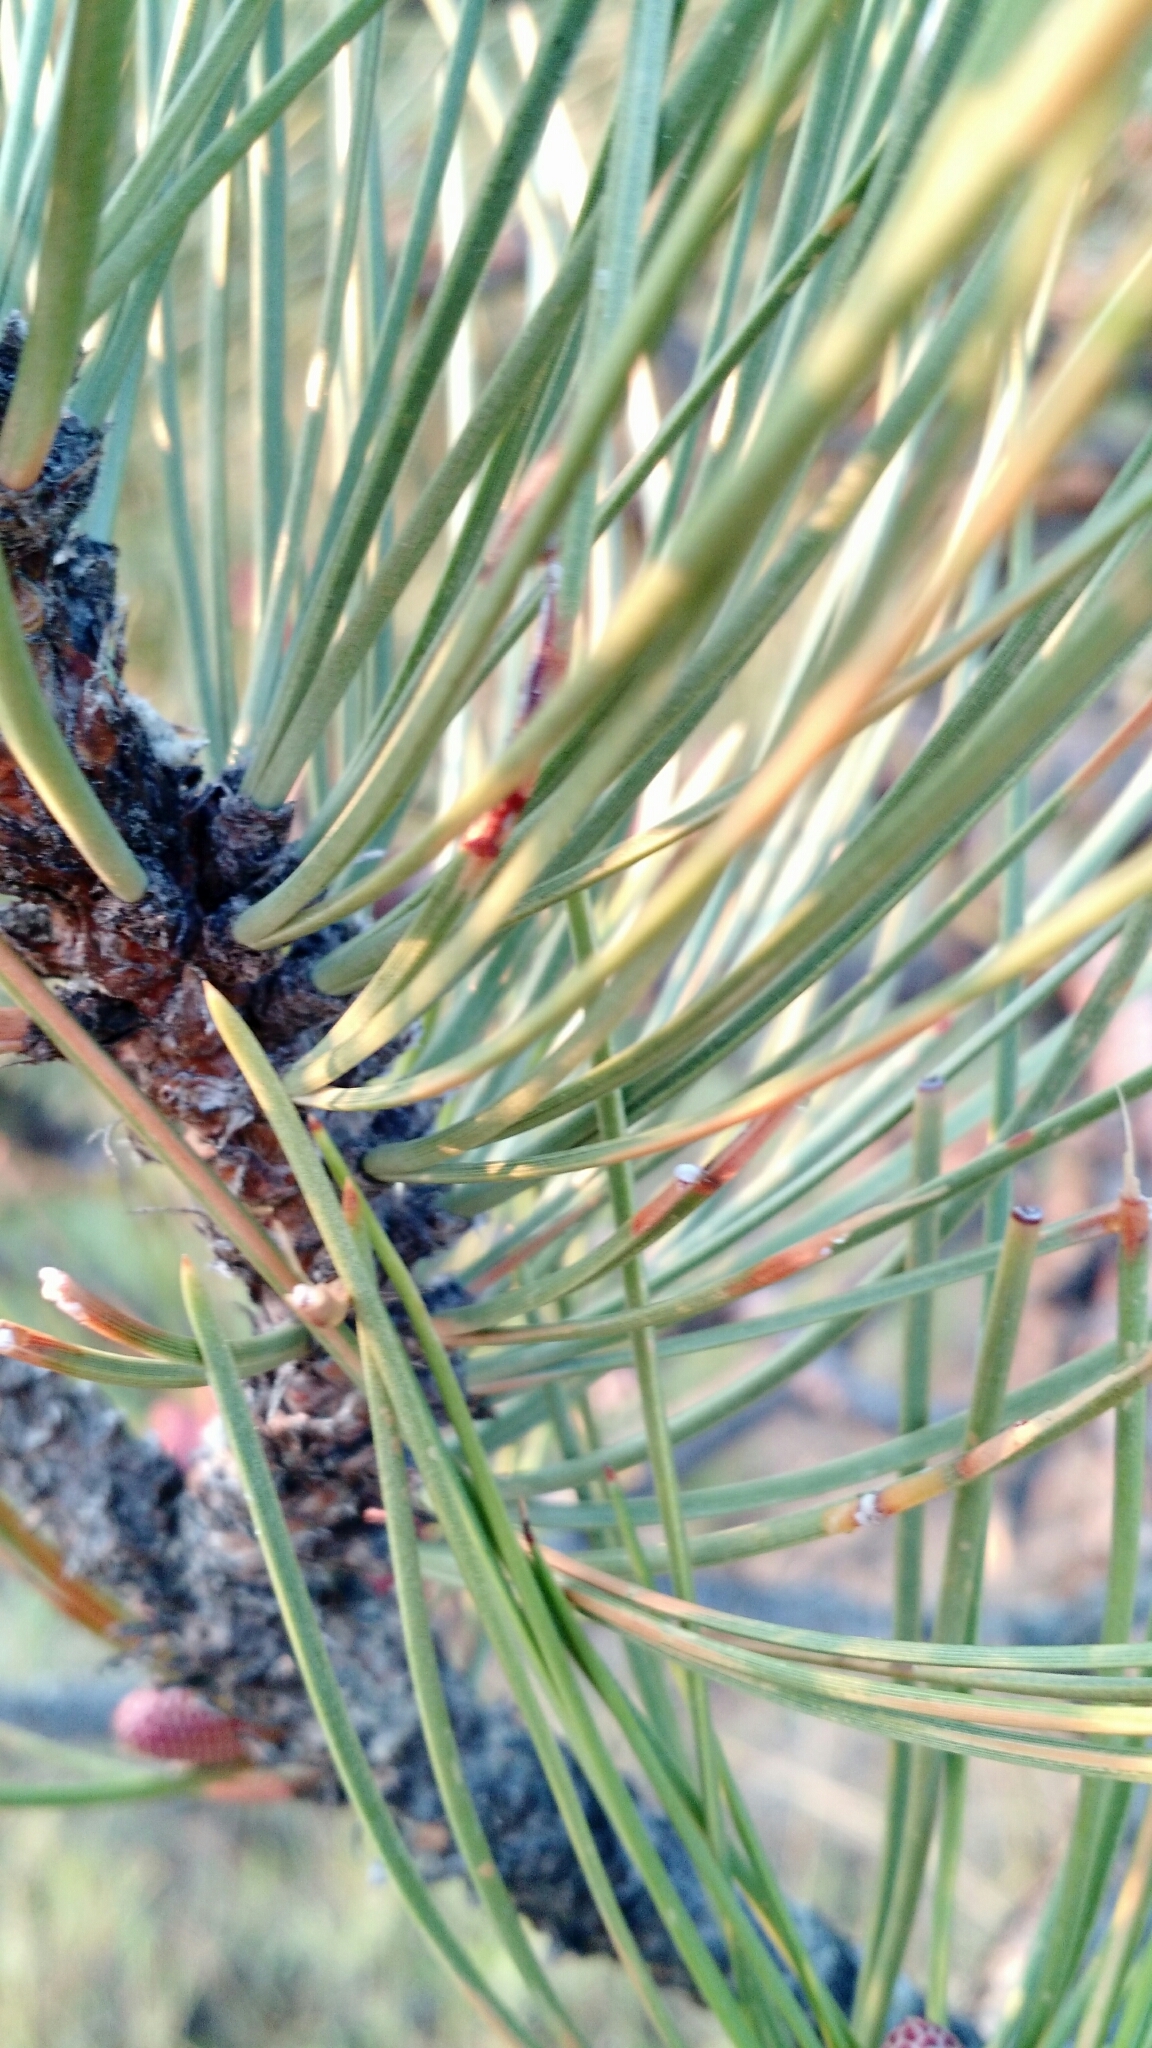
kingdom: Plantae
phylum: Tracheophyta
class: Pinopsida
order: Pinales
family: Pinaceae
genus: Pinus
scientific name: Pinus ponderosa
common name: Western yellow-pine
